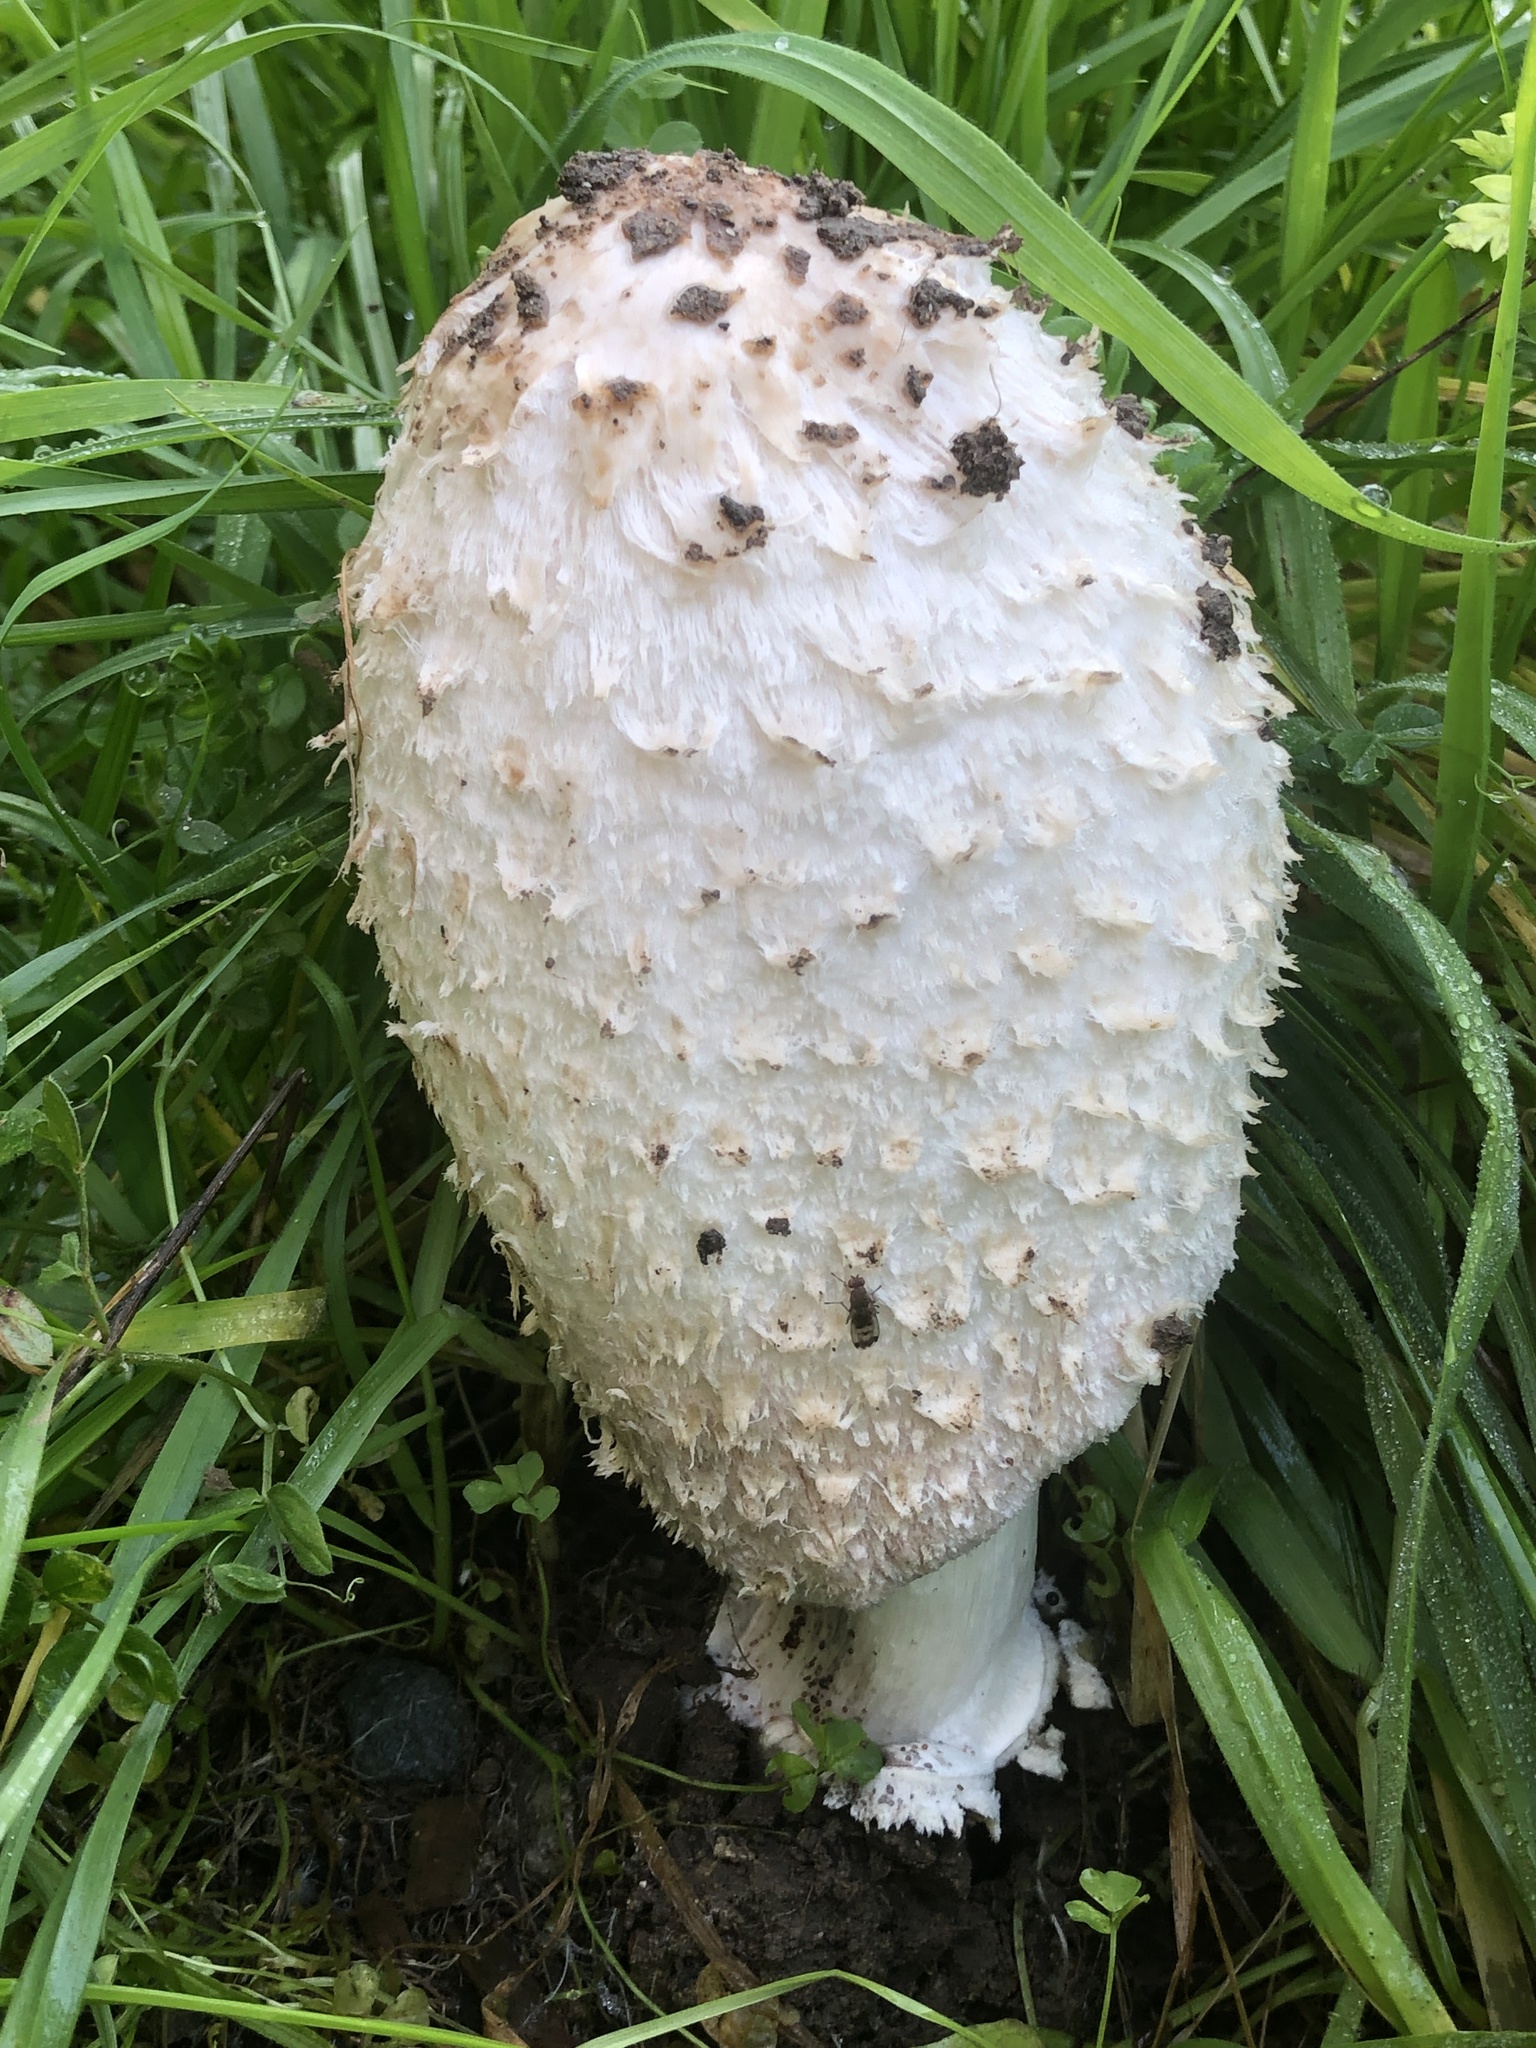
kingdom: Fungi
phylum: Basidiomycota
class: Agaricomycetes
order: Agaricales
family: Agaricaceae
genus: Coprinus
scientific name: Coprinus comatus
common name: Lawyer's wig
